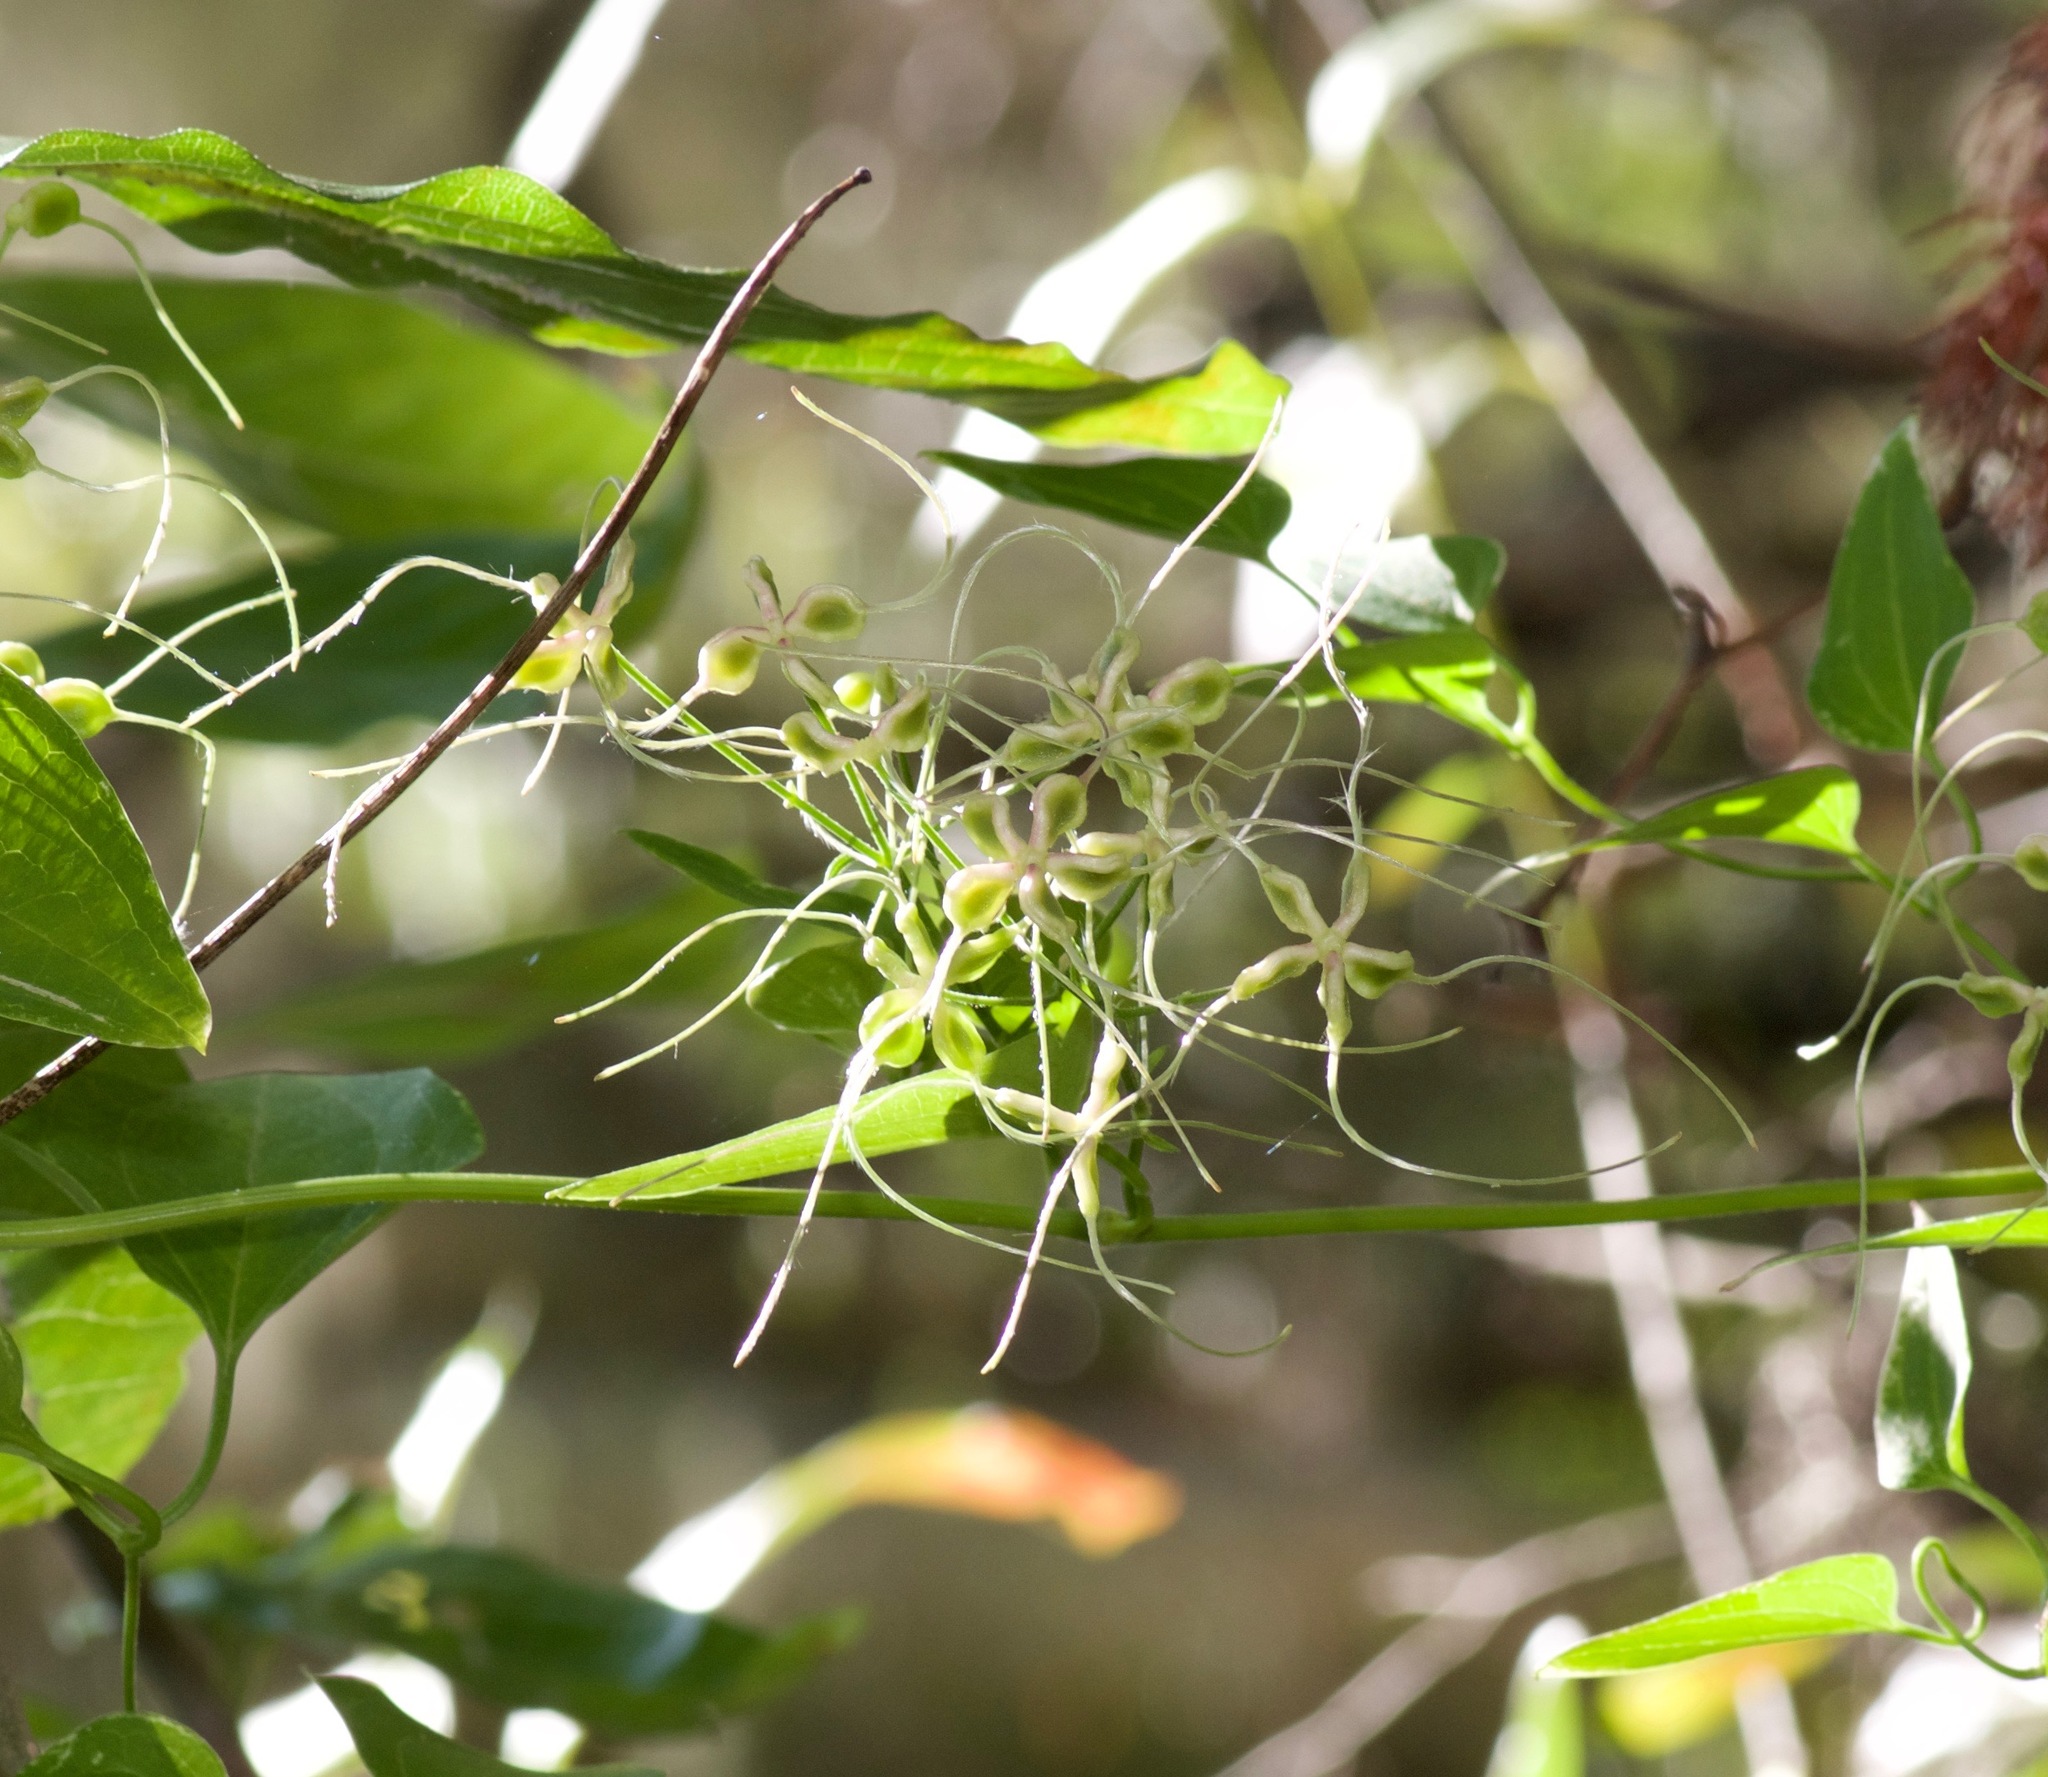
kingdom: Plantae
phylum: Tracheophyta
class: Magnoliopsida
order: Ranunculales
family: Ranunculaceae
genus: Clematis
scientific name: Clematis terniflora
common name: Sweet autumn clematis
